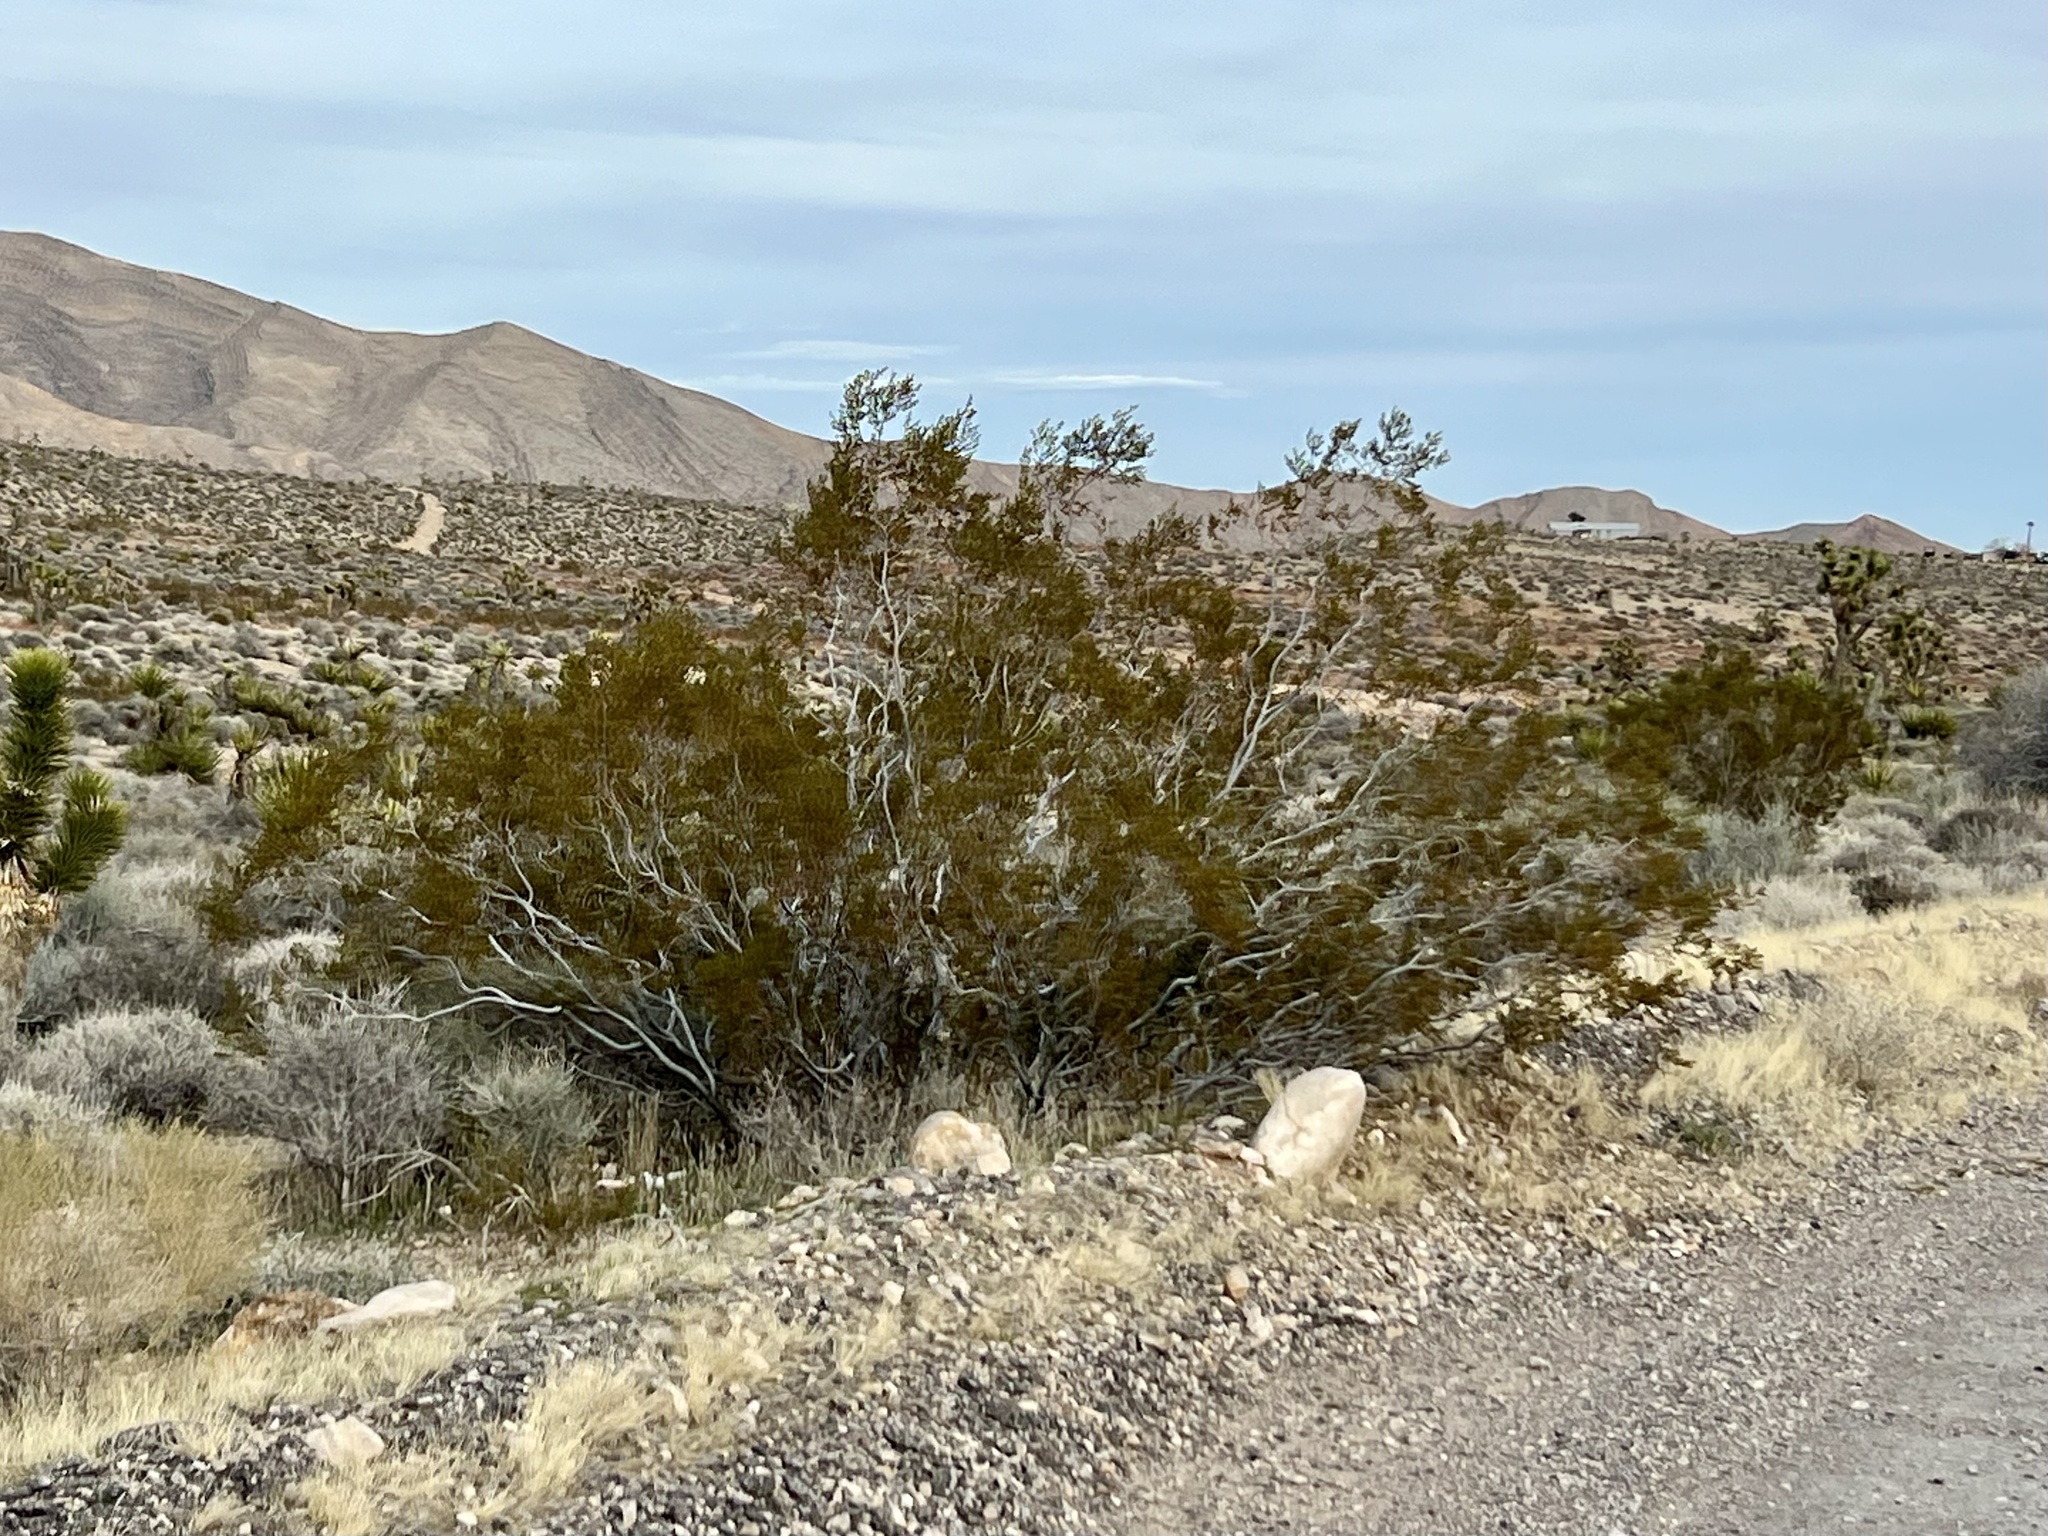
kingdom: Plantae
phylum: Tracheophyta
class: Magnoliopsida
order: Zygophyllales
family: Zygophyllaceae
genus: Larrea
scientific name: Larrea tridentata
